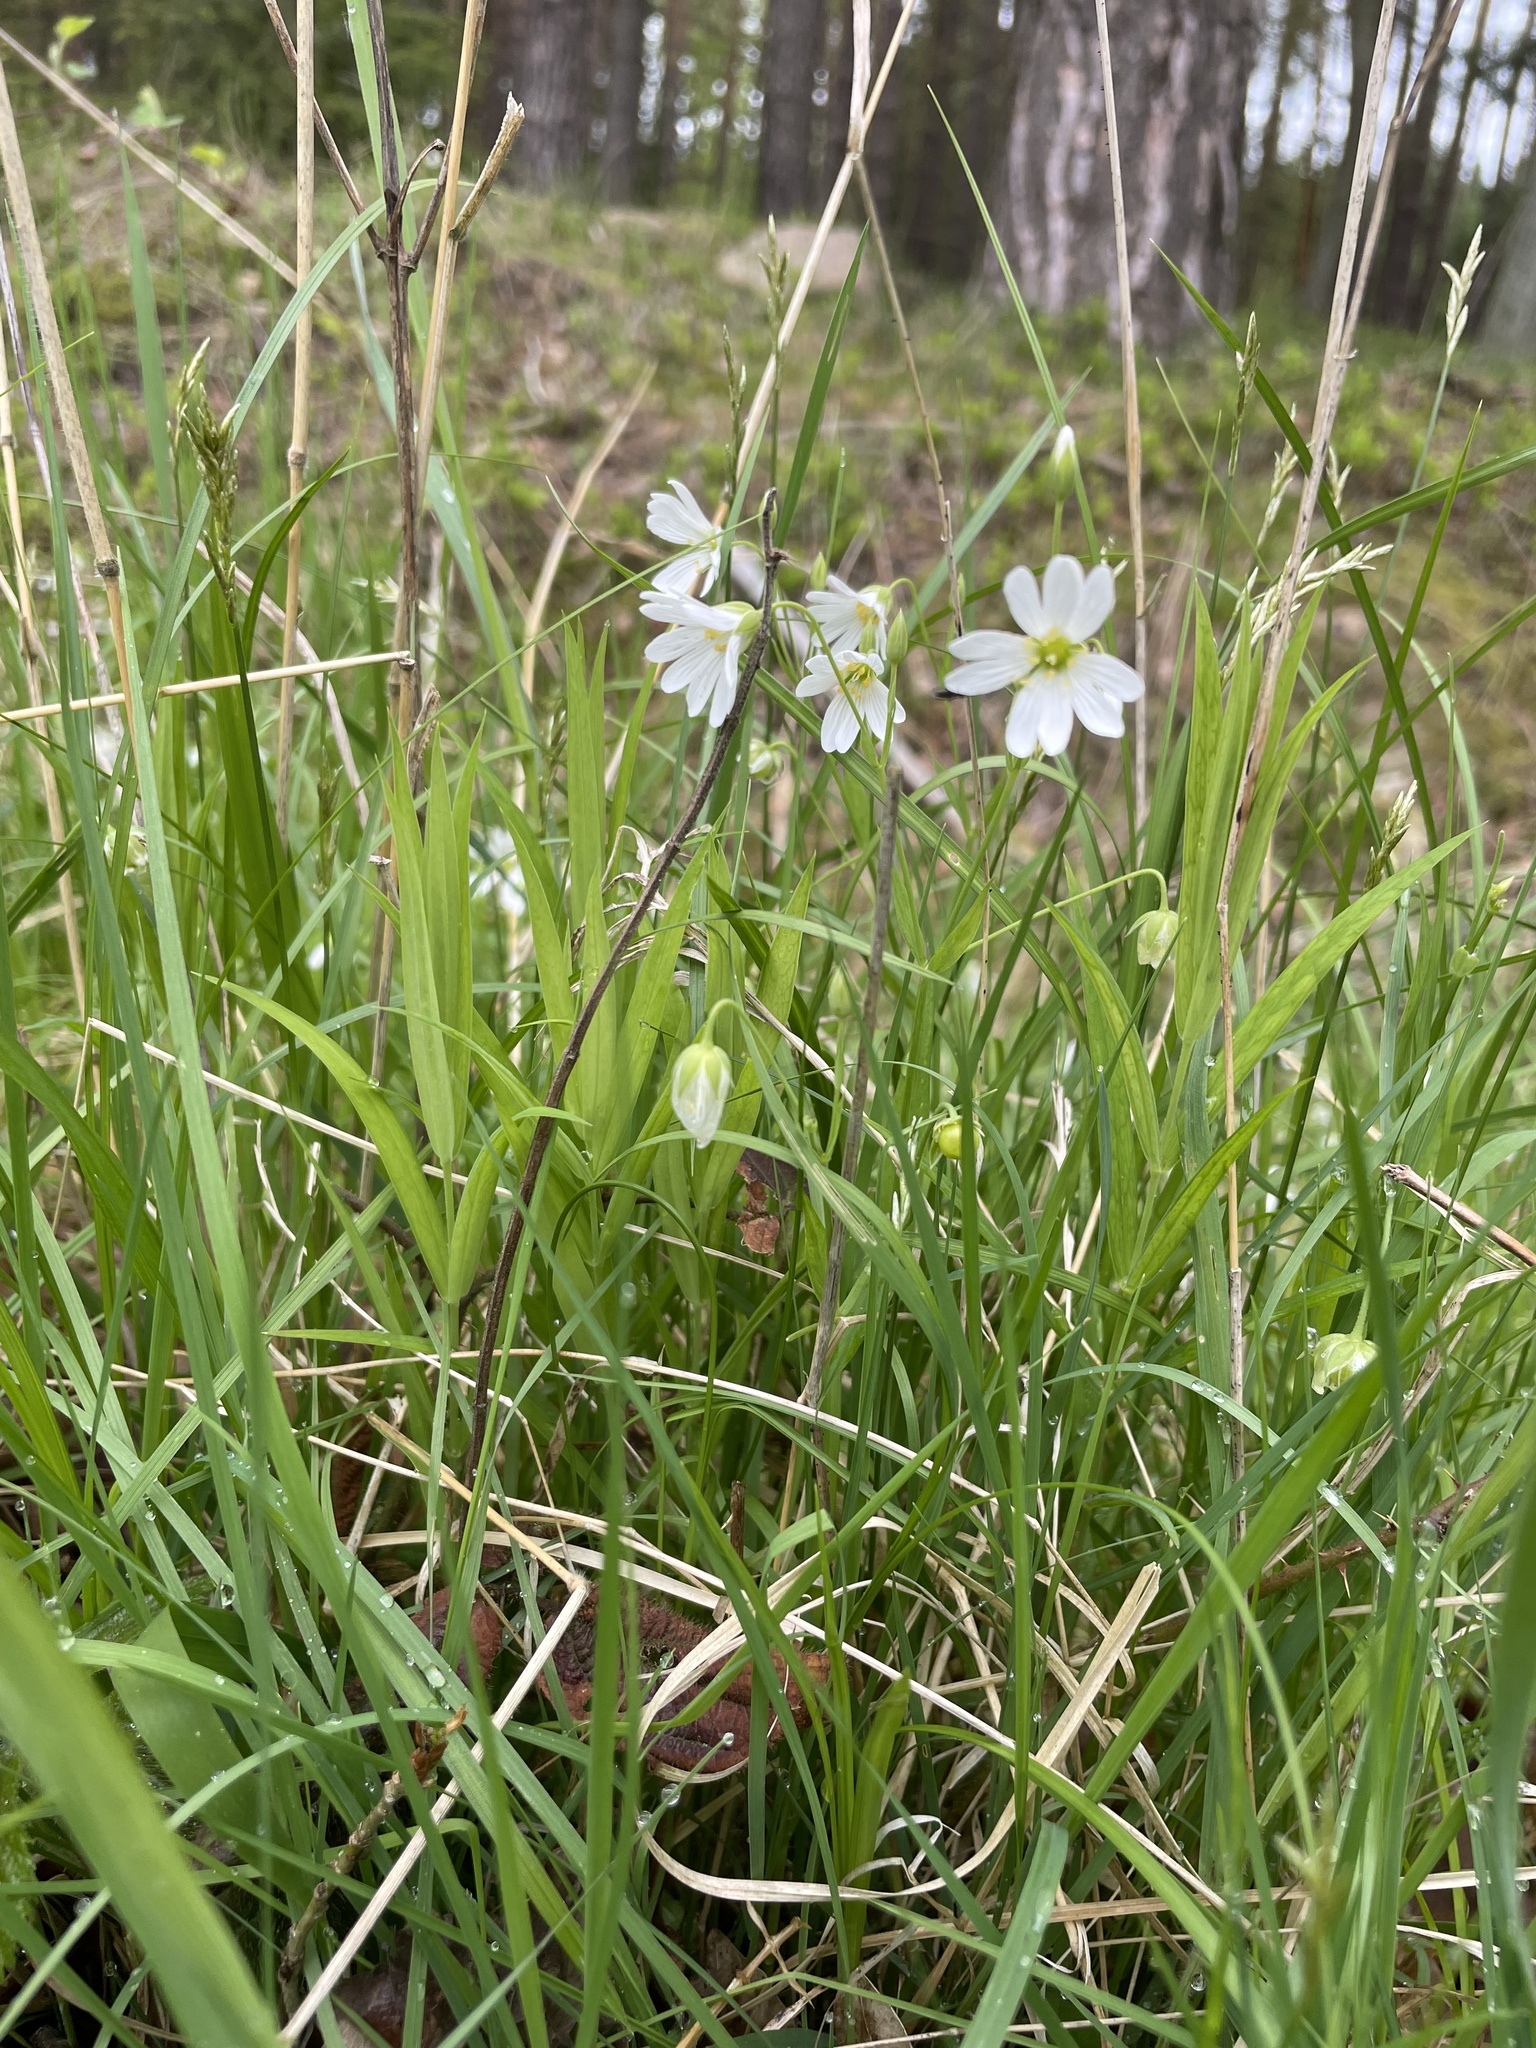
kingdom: Plantae
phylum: Tracheophyta
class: Magnoliopsida
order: Caryophyllales
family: Caryophyllaceae
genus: Rabelera
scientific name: Rabelera holostea
